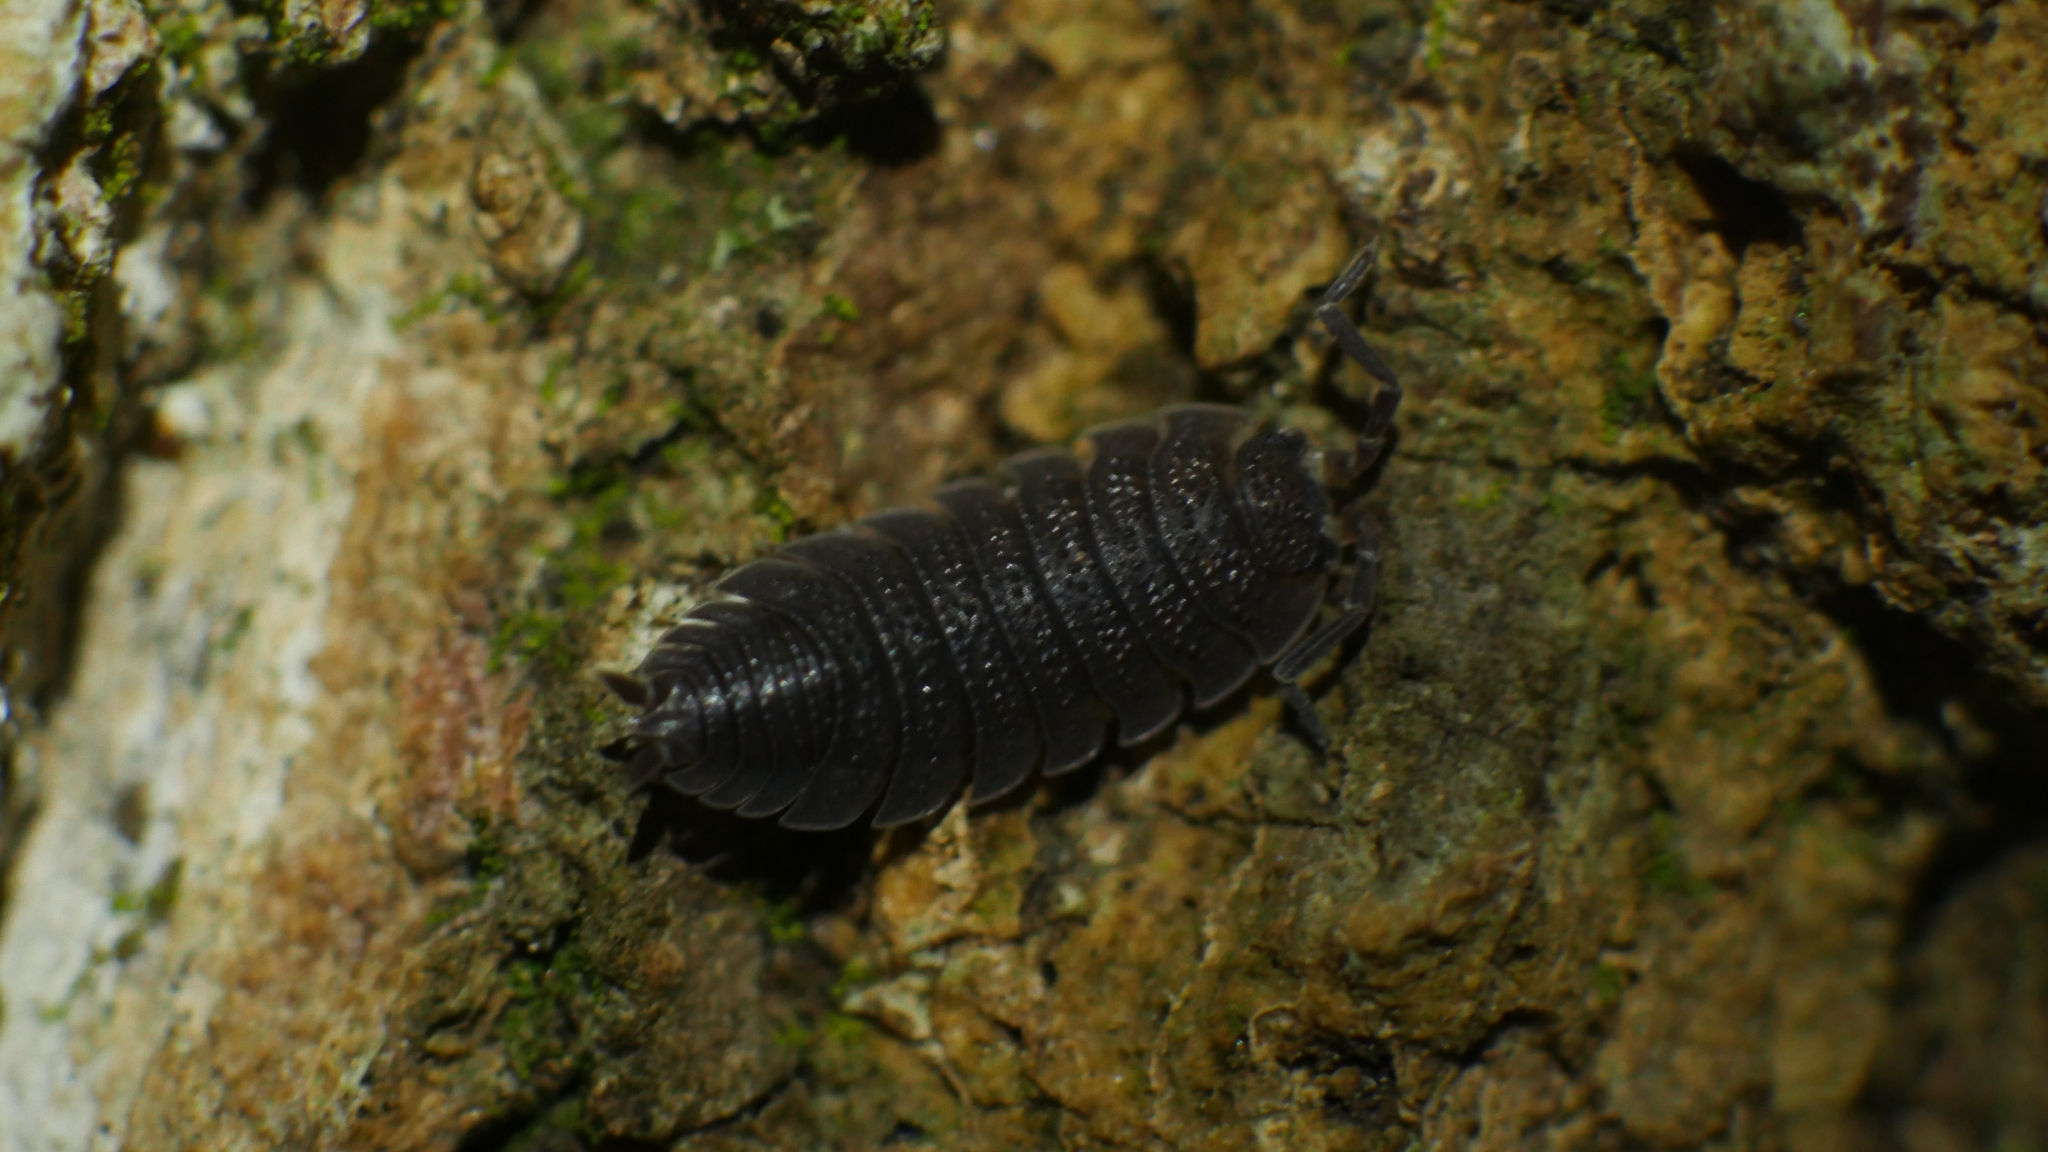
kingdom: Animalia
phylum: Arthropoda
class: Malacostraca
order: Isopoda
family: Porcellionidae
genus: Porcellio
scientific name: Porcellio scaber
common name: Common rough woodlouse
